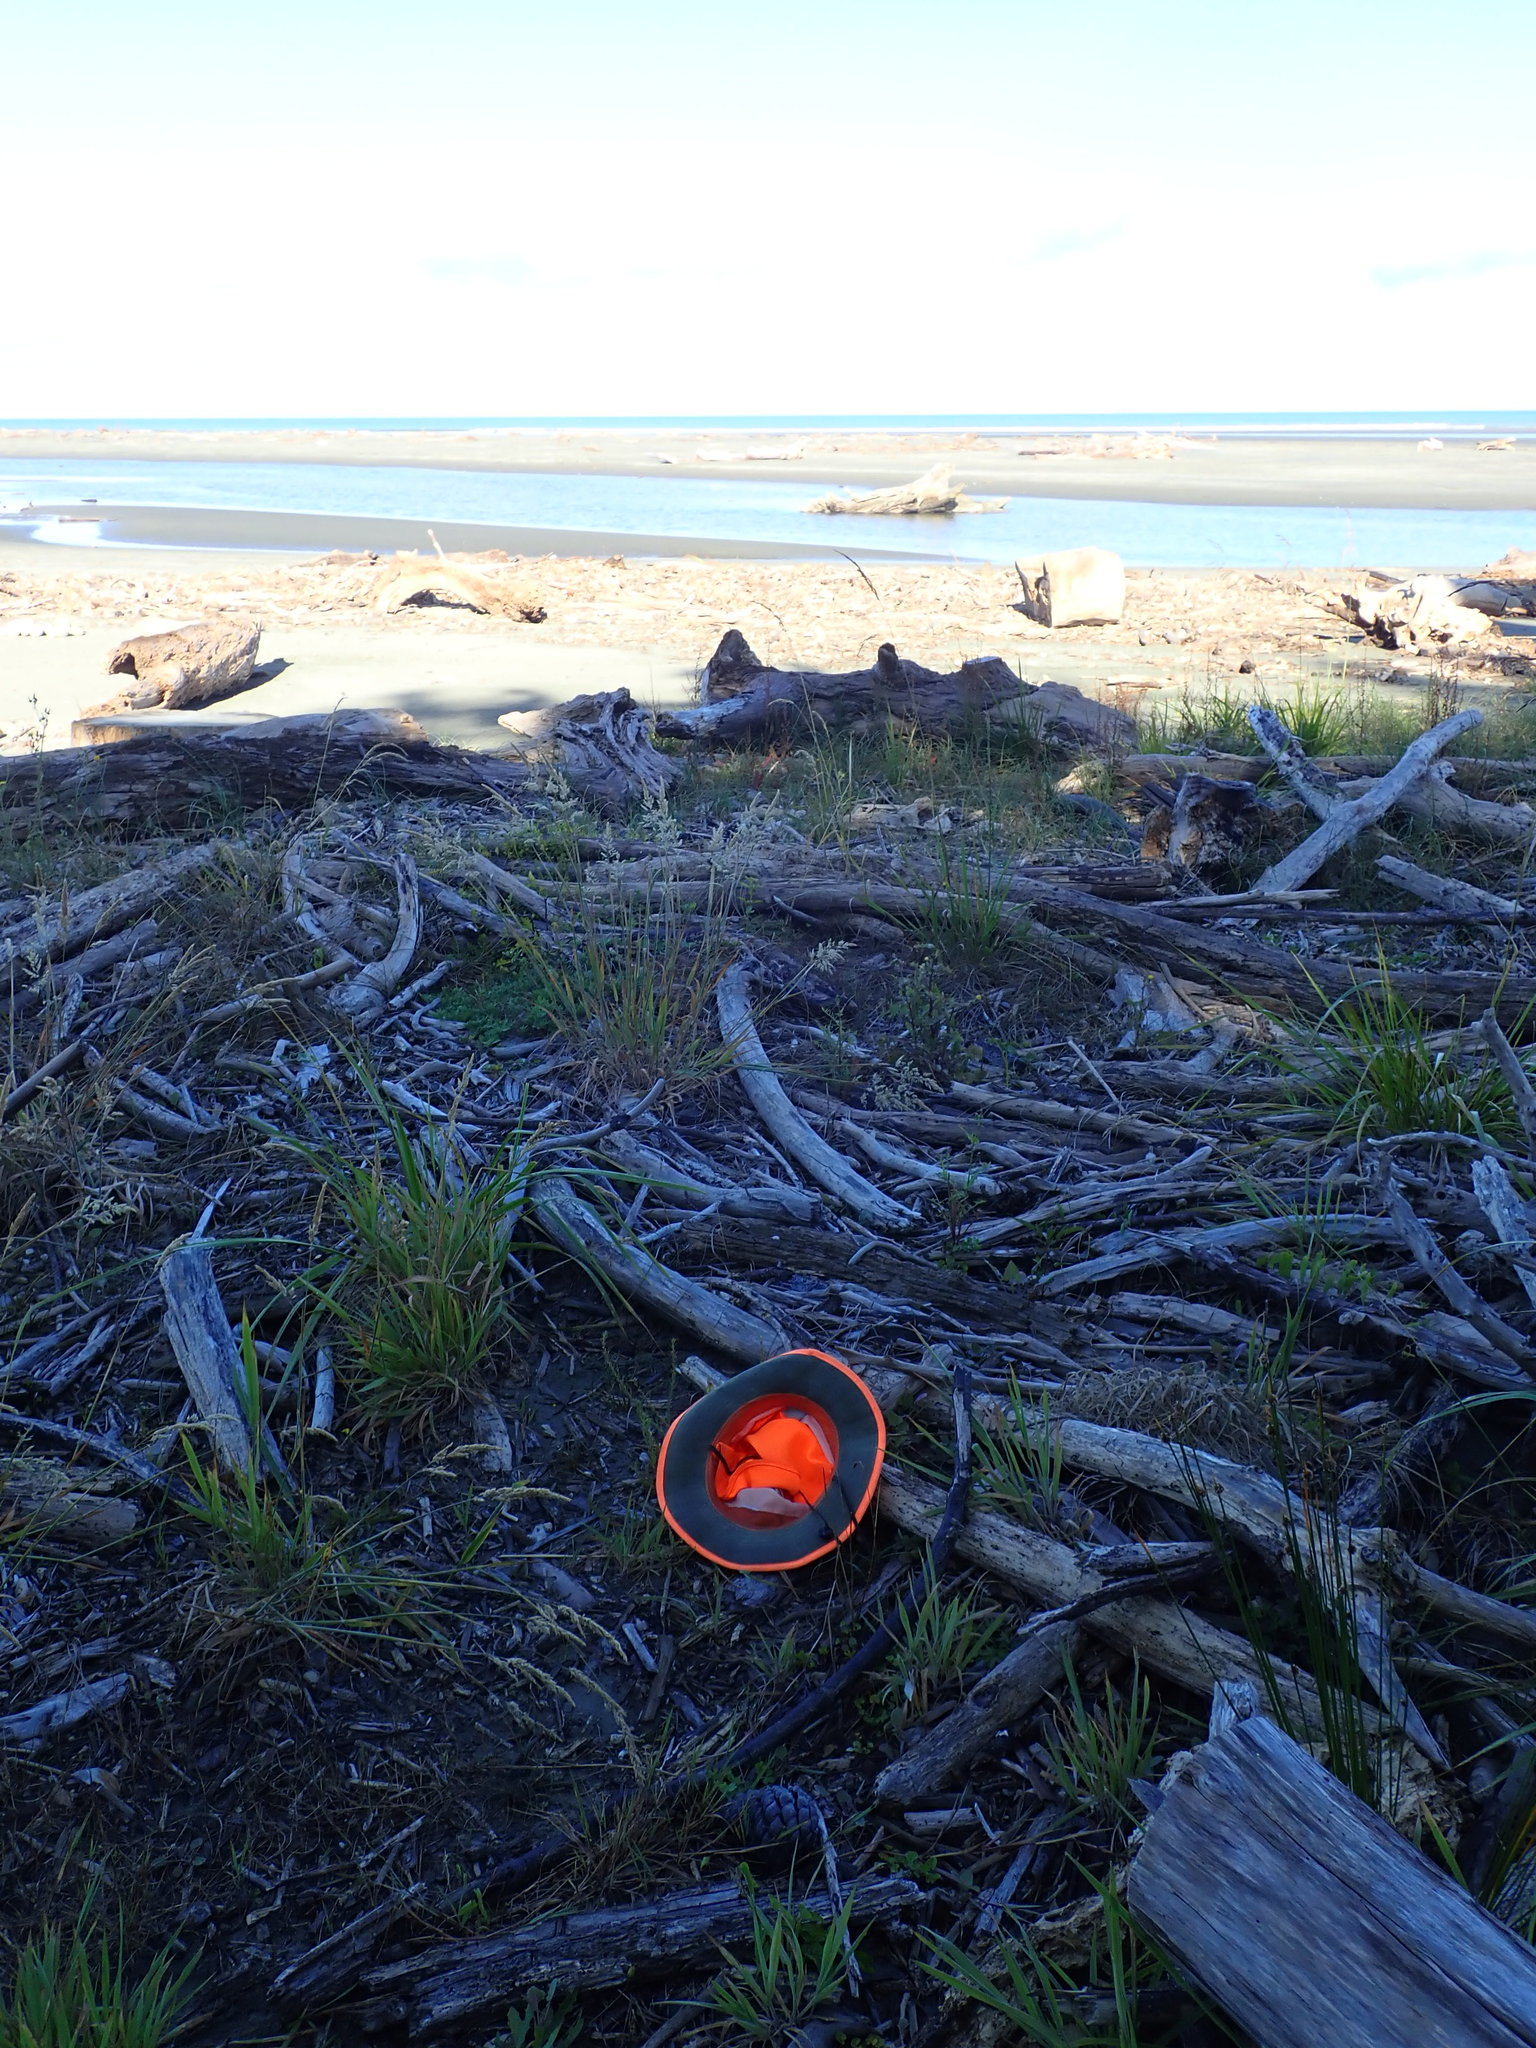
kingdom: Plantae
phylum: Tracheophyta
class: Magnoliopsida
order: Myrtales
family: Lythraceae
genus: Lythrum
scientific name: Lythrum hyssopifolia
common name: Grass-poly
